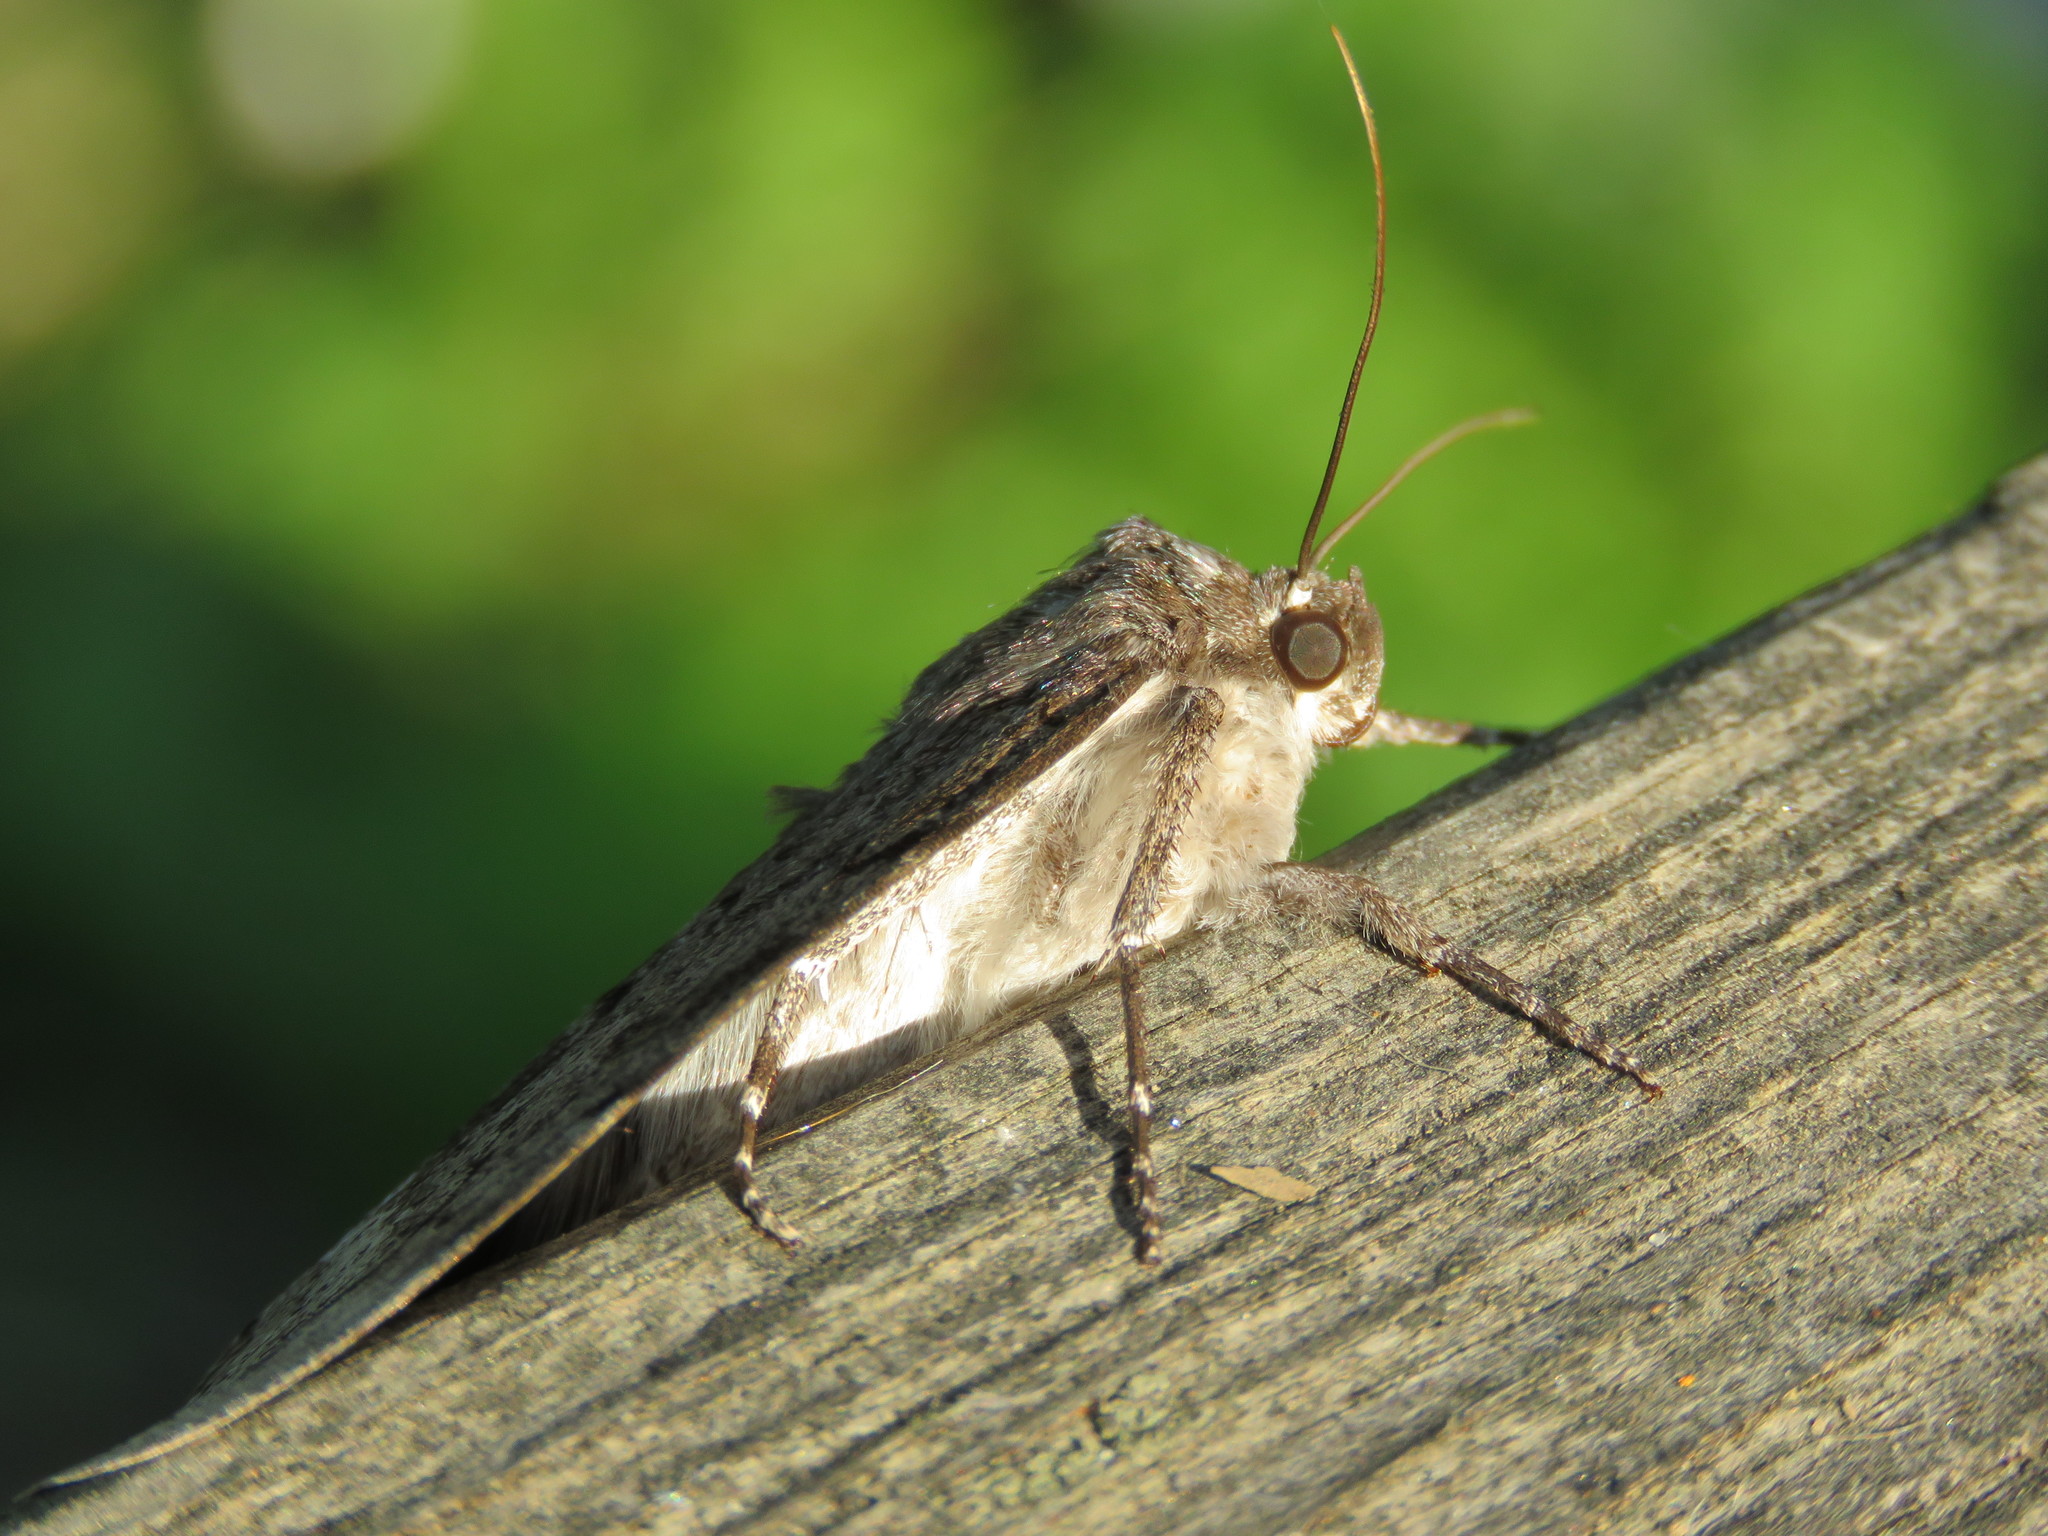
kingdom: Animalia
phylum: Arthropoda
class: Insecta
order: Lepidoptera
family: Erebidae
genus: Catocala
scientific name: Catocala obscura
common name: Obscure underwing moth
